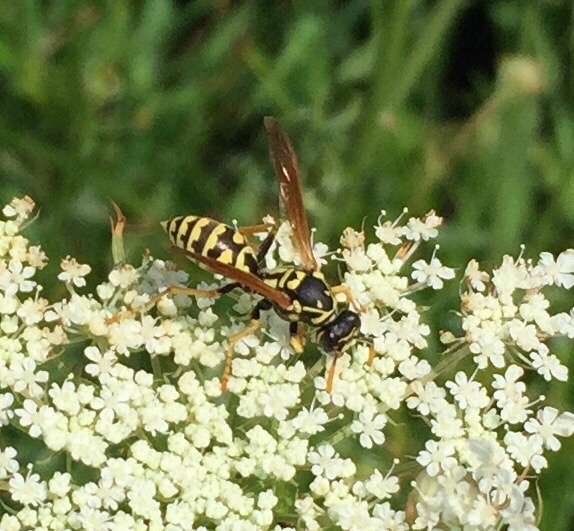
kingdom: Animalia
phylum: Arthropoda
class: Insecta
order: Hymenoptera
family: Eumenidae
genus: Polistes
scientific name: Polistes dominula
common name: Paper wasp
